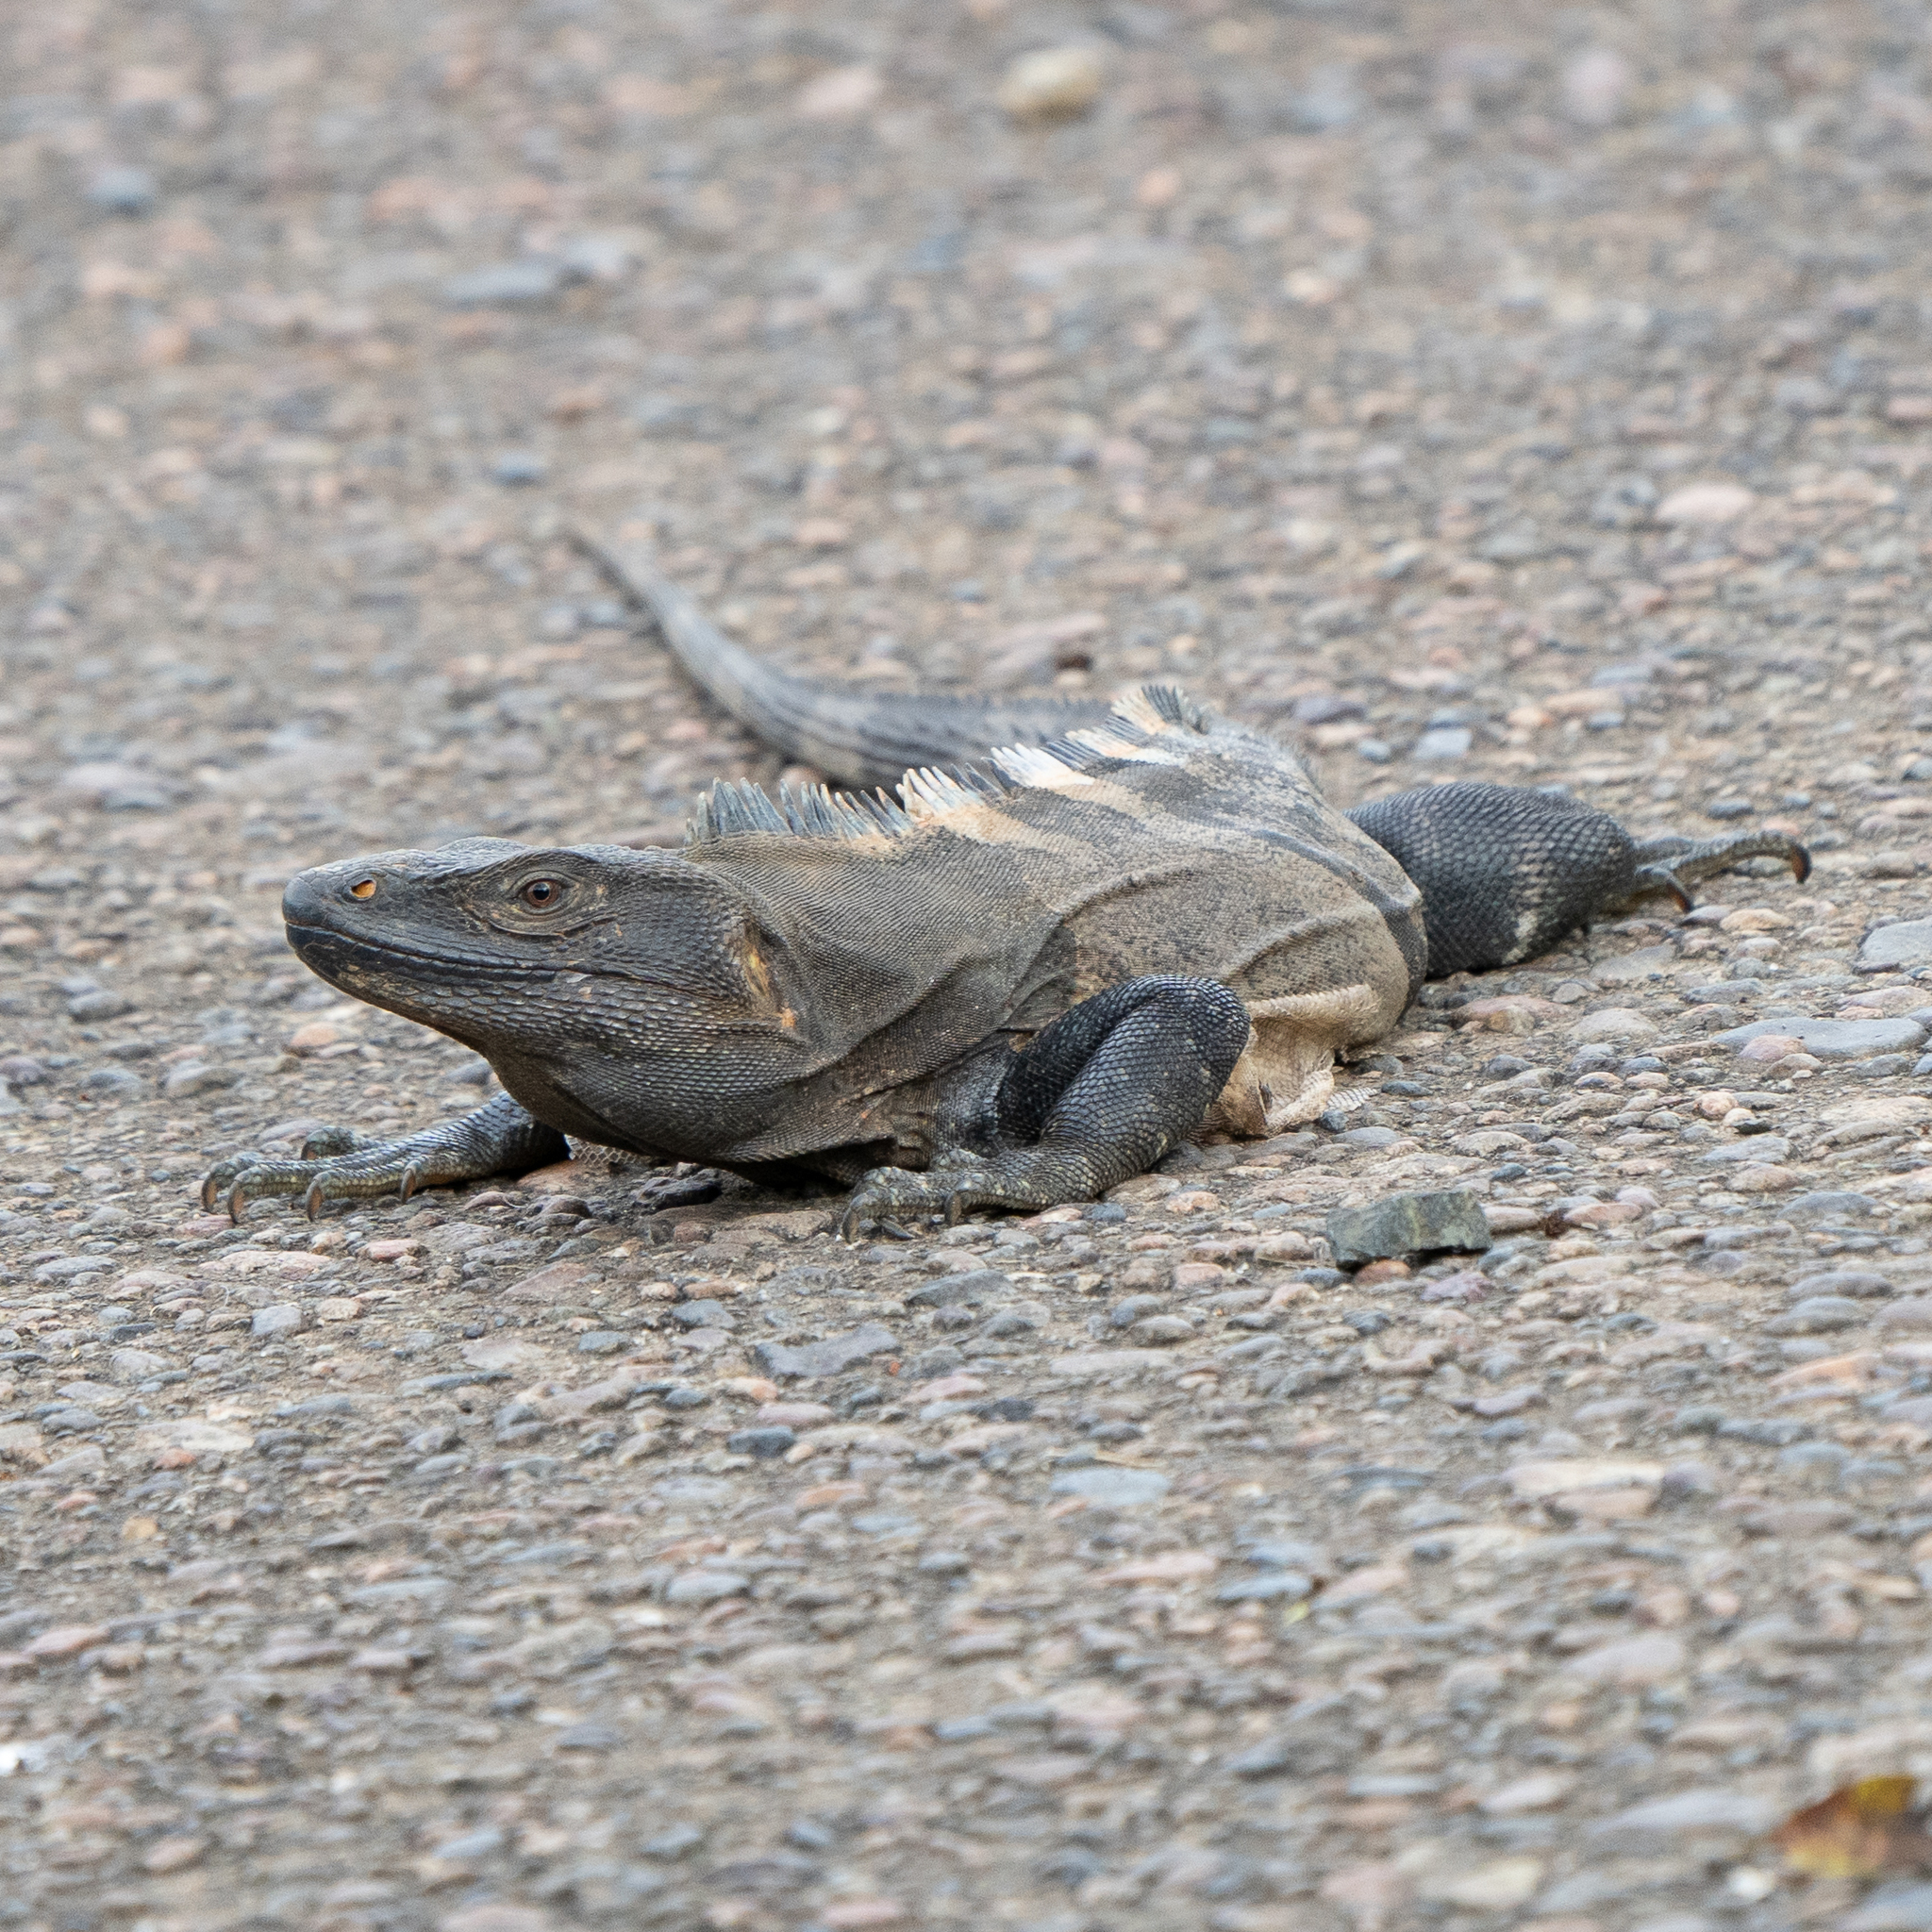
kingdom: Animalia
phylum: Chordata
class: Squamata
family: Iguanidae
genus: Ctenosaura
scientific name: Ctenosaura similis
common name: Black spiny-tailed iguana
